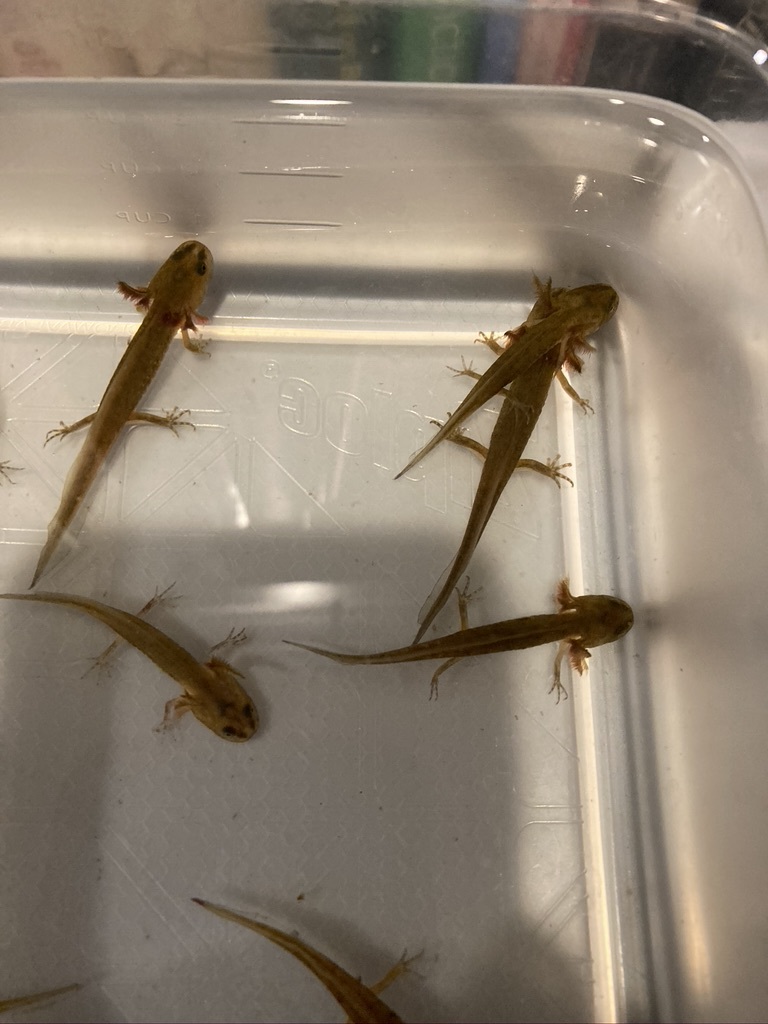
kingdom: Animalia
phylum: Chordata
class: Amphibia
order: Caudata
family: Ambystomatidae
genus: Ambystoma
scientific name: Ambystoma macrodactylum
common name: Long-toed salamander
